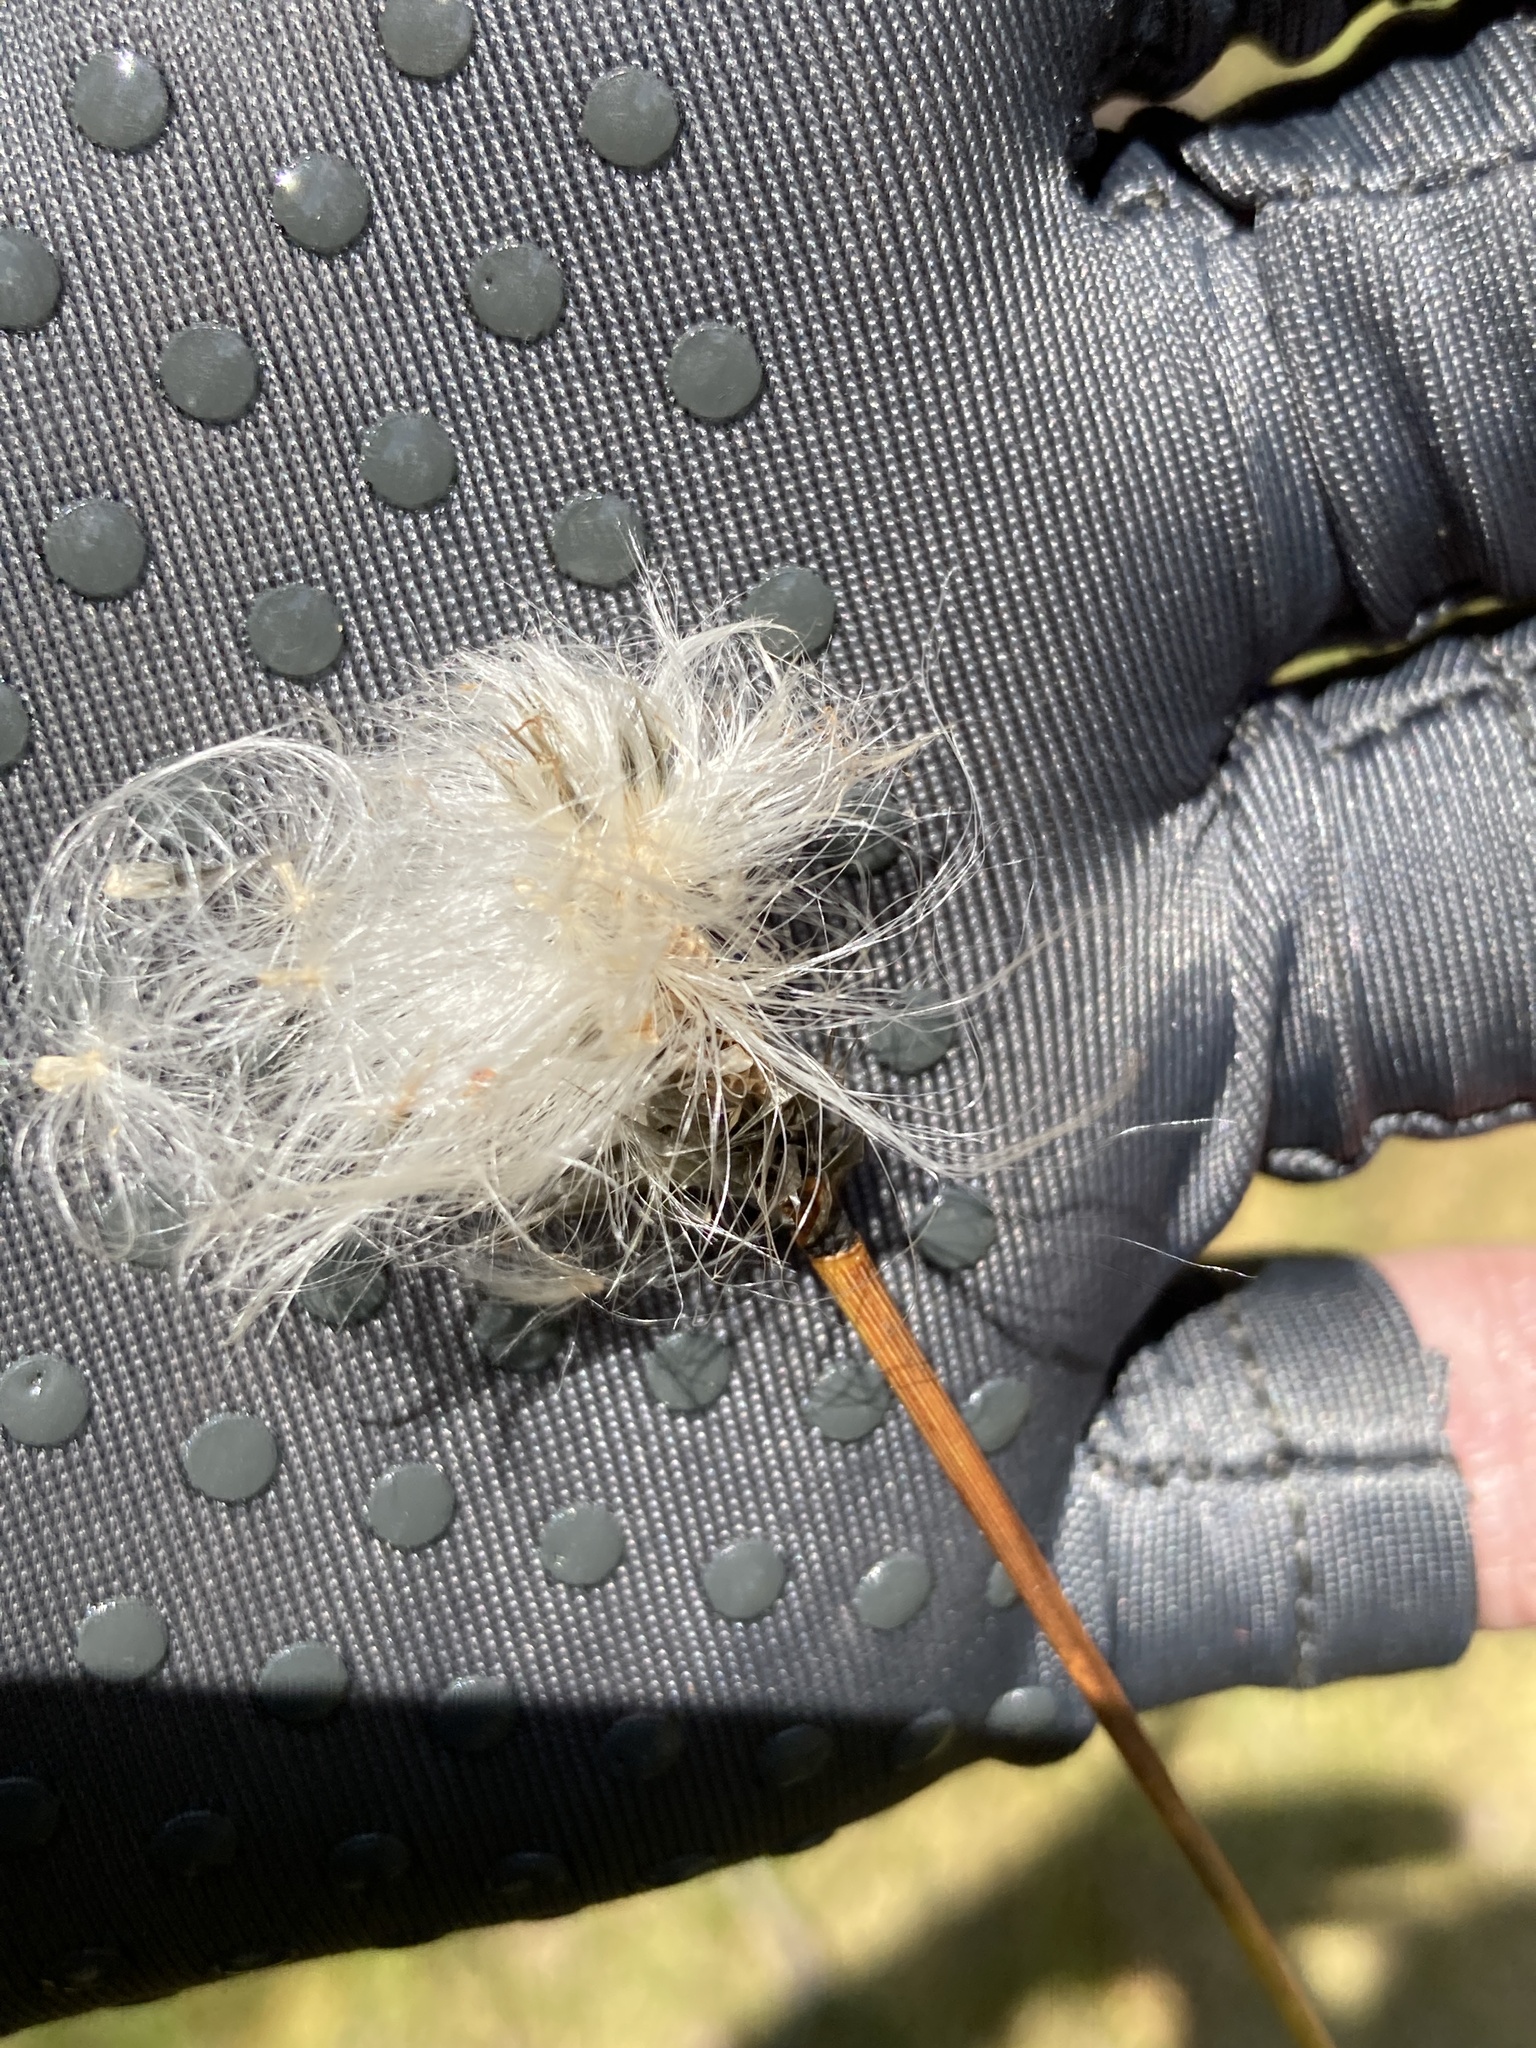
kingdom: Plantae
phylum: Tracheophyta
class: Liliopsida
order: Poales
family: Cyperaceae
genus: Eriophorum
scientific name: Eriophorum vaginatum
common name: Hare's-tail cottongrass
